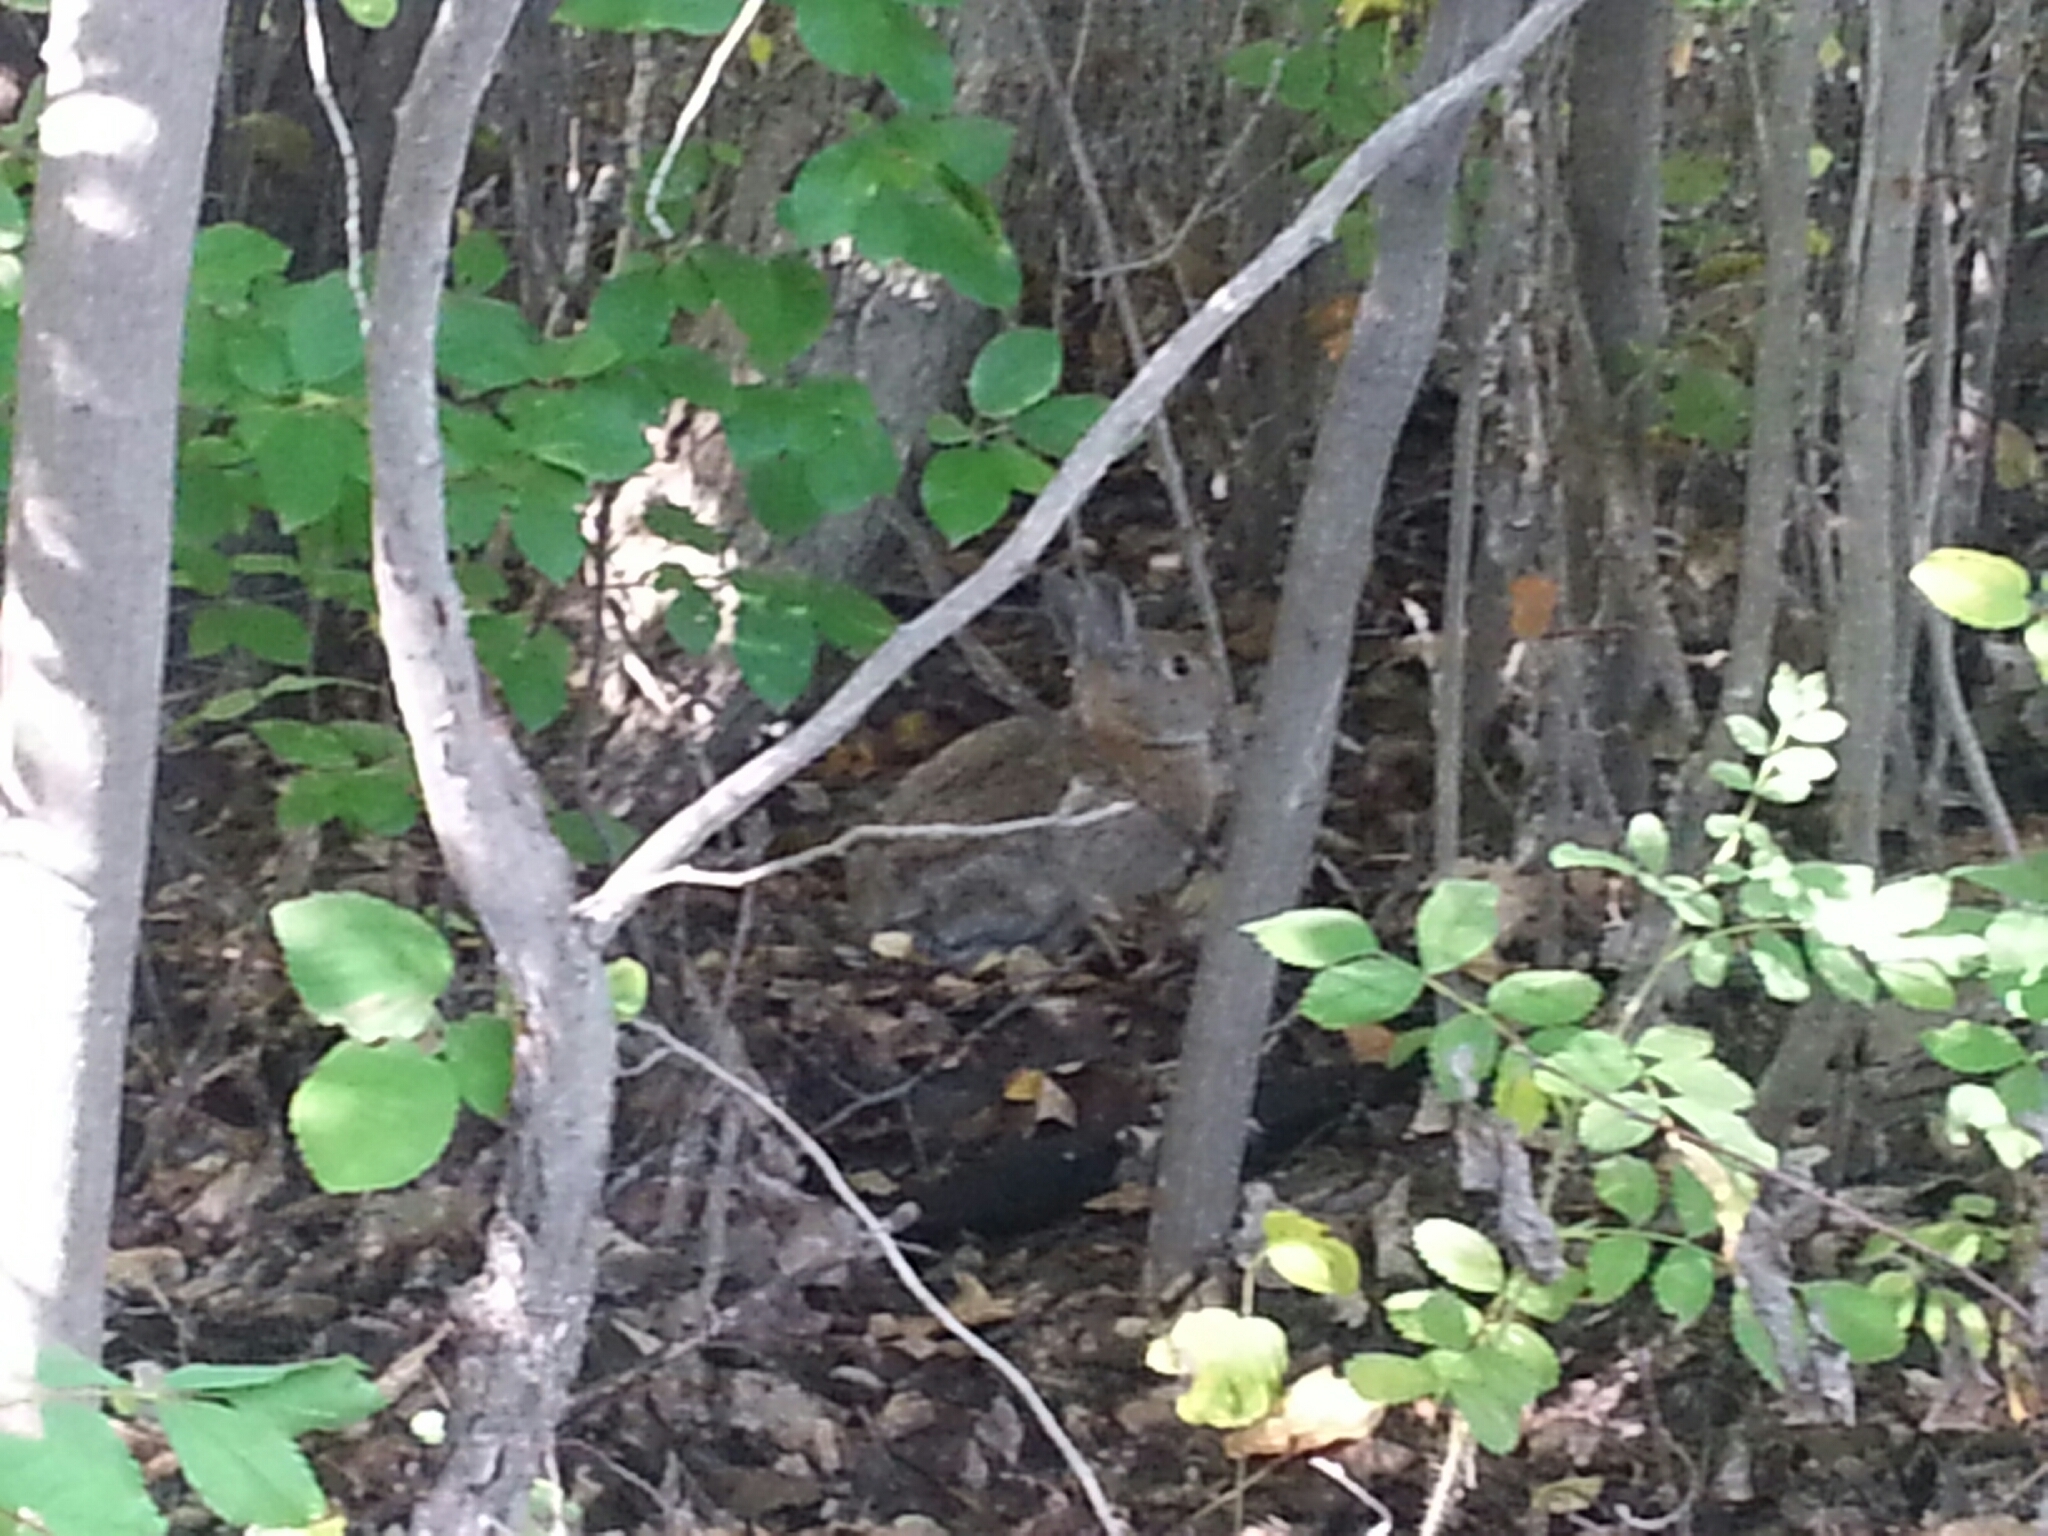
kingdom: Animalia
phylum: Chordata
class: Mammalia
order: Lagomorpha
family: Leporidae
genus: Sylvilagus
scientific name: Sylvilagus nuttallii
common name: Mountain cottontail
